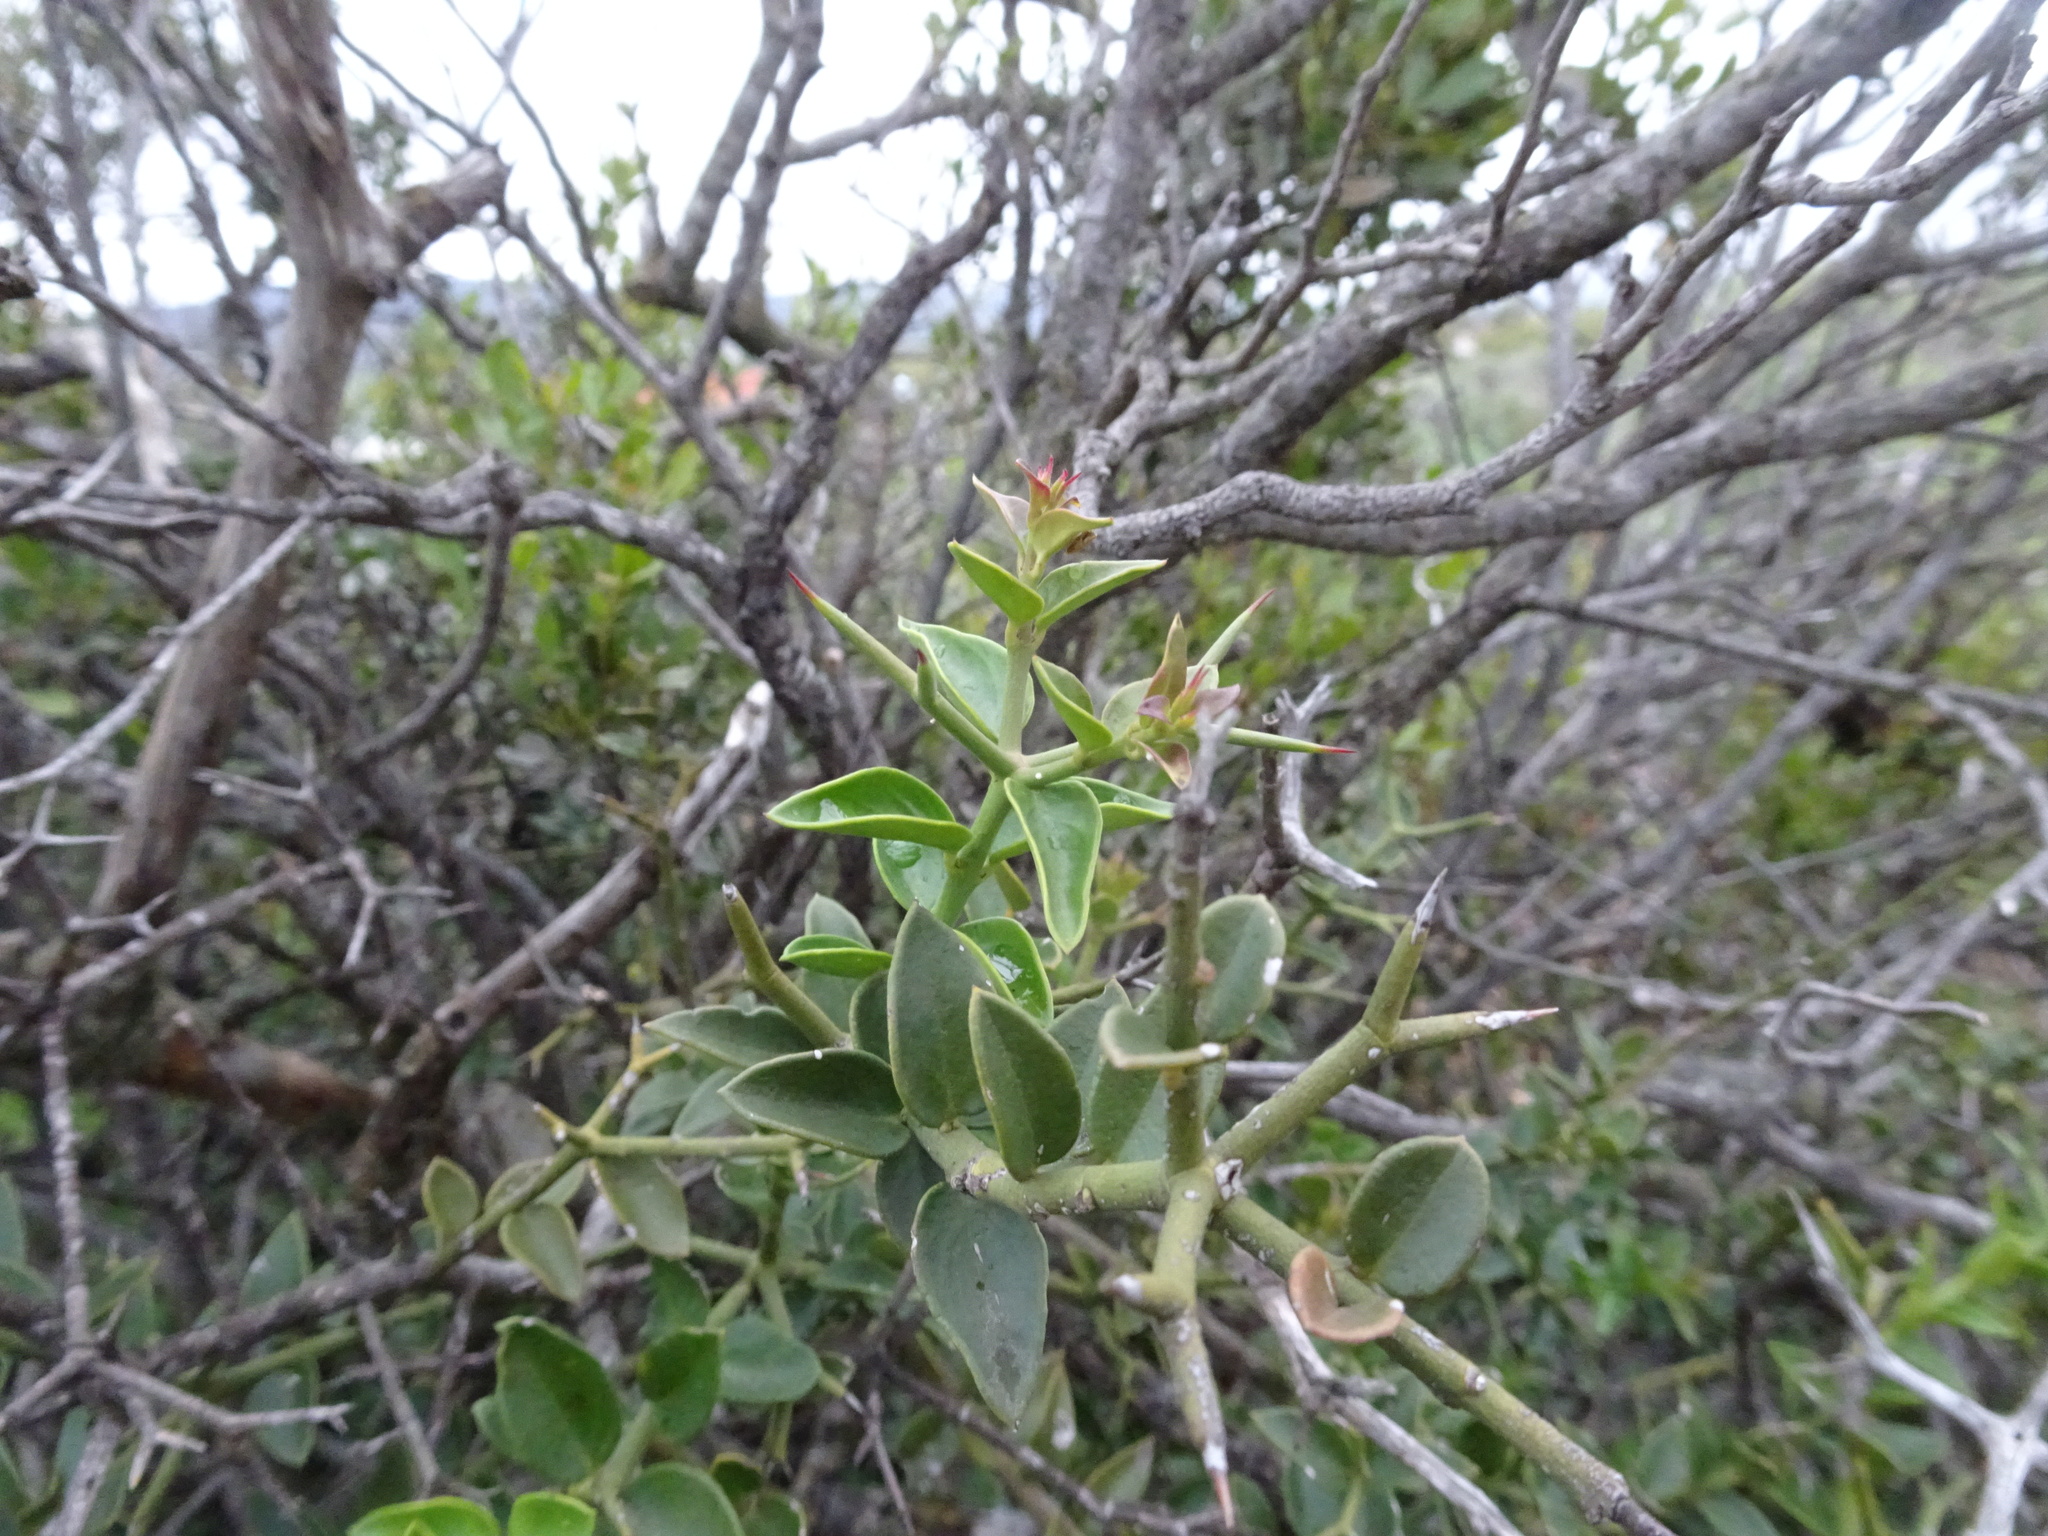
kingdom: Plantae
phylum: Tracheophyta
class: Magnoliopsida
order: Gentianales
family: Apocynaceae
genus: Carissa
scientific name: Carissa haematocarpa
